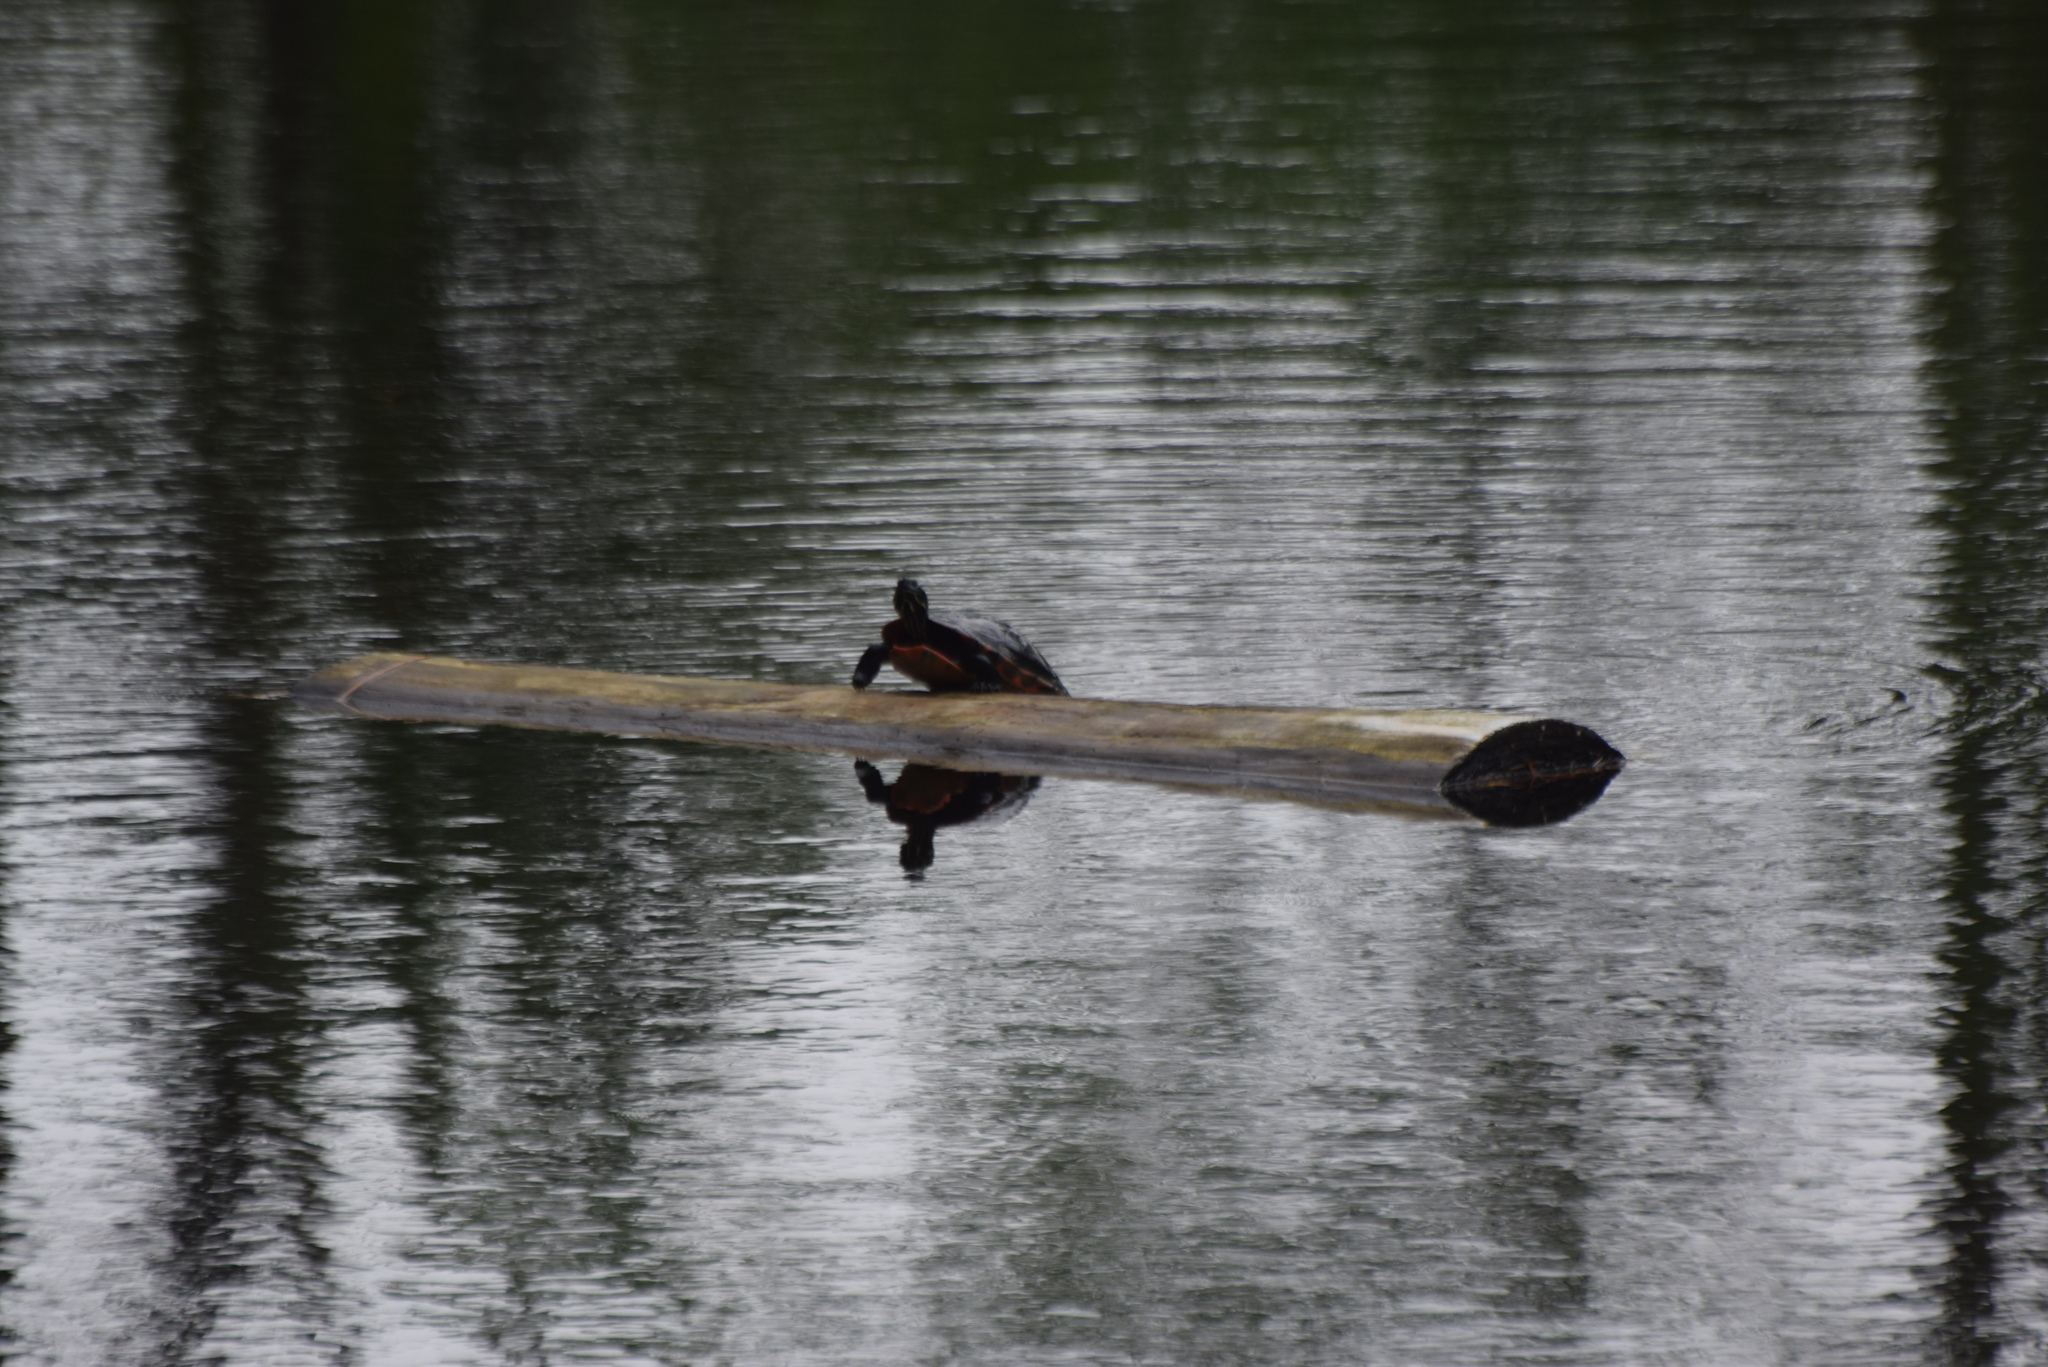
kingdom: Animalia
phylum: Chordata
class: Testudines
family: Emydidae
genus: Pseudemys
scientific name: Pseudemys rubriventris
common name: American red-bellied turtle
